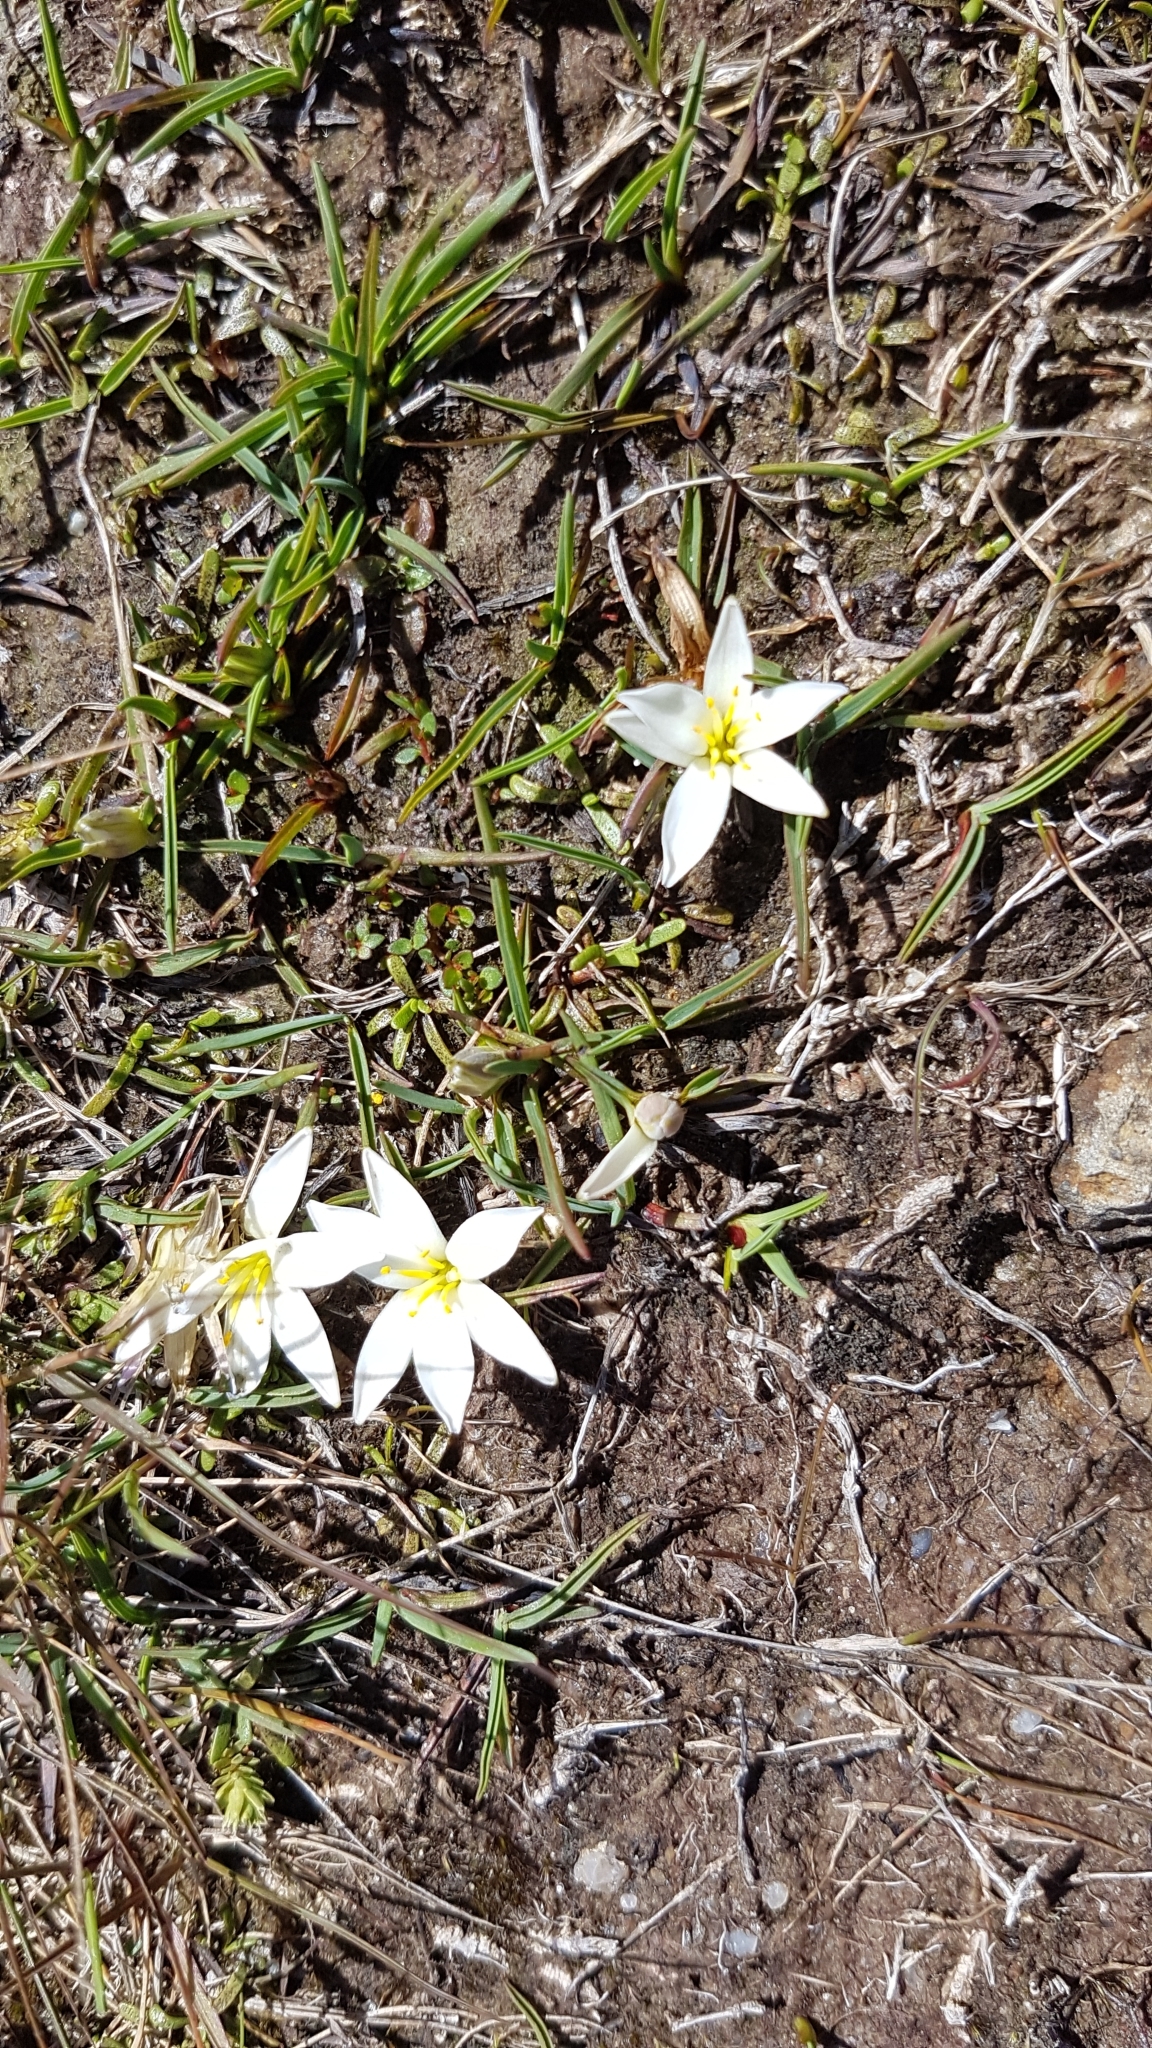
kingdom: Plantae
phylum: Tracheophyta
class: Liliopsida
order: Asparagales
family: Asphodelaceae
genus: Herpolirion
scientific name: Herpolirion novae-zelandiae
